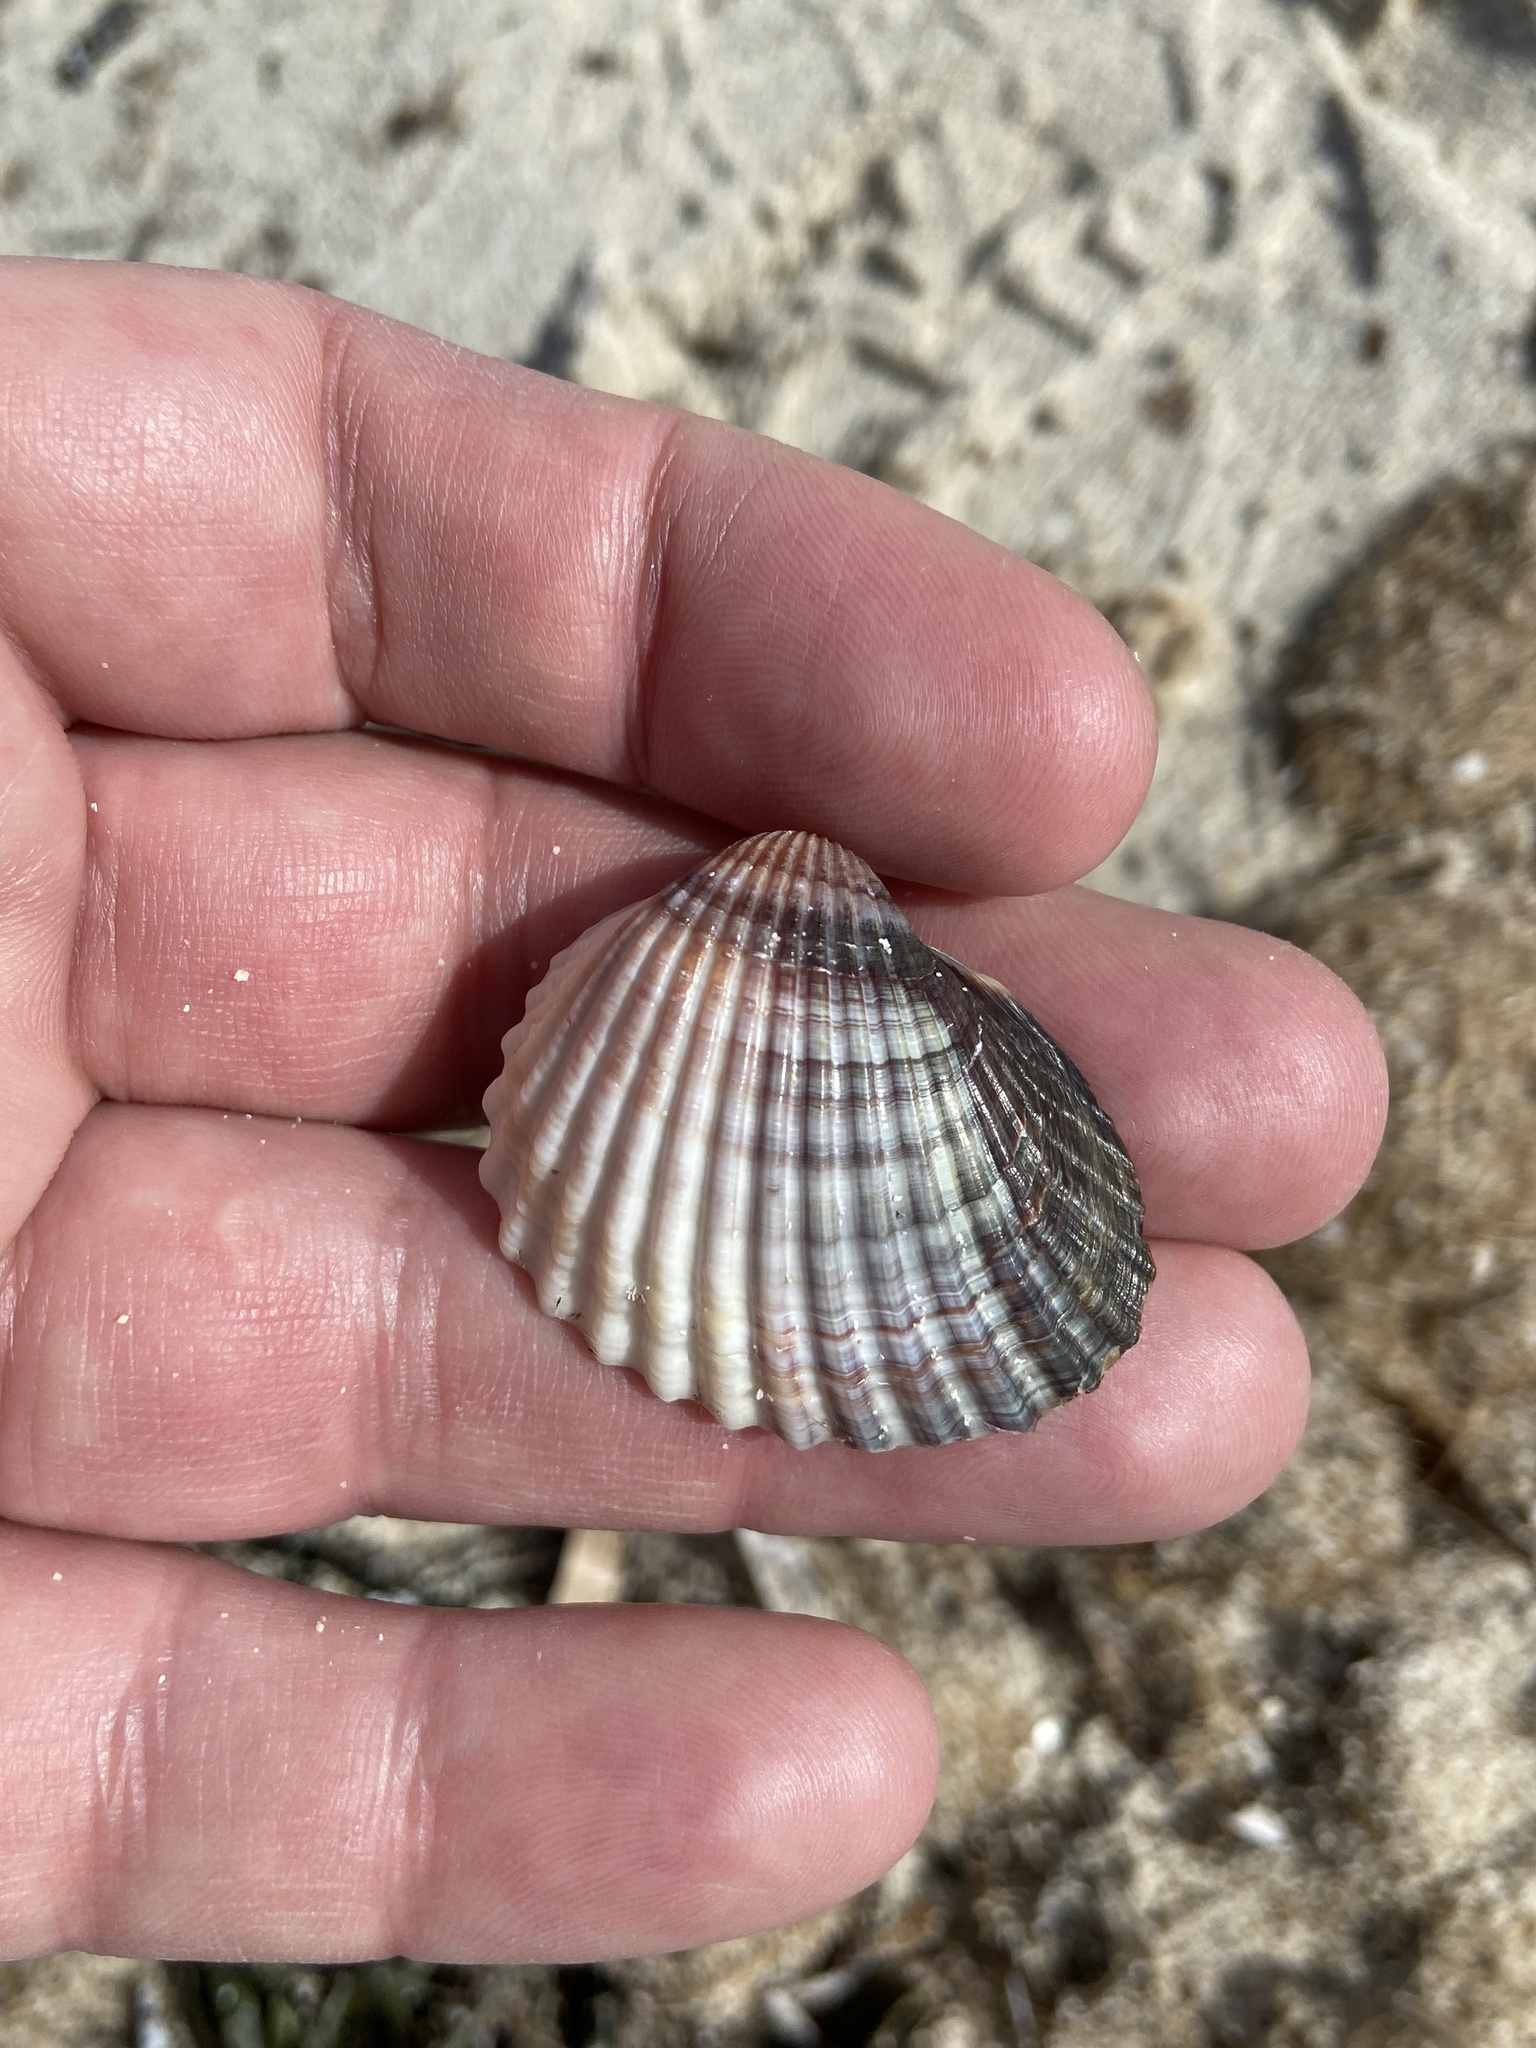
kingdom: Animalia
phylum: Mollusca
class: Bivalvia
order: Cardiida
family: Cardiidae
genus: Cerastoderma
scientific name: Cerastoderma glaucum
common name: Lagoon cockle
